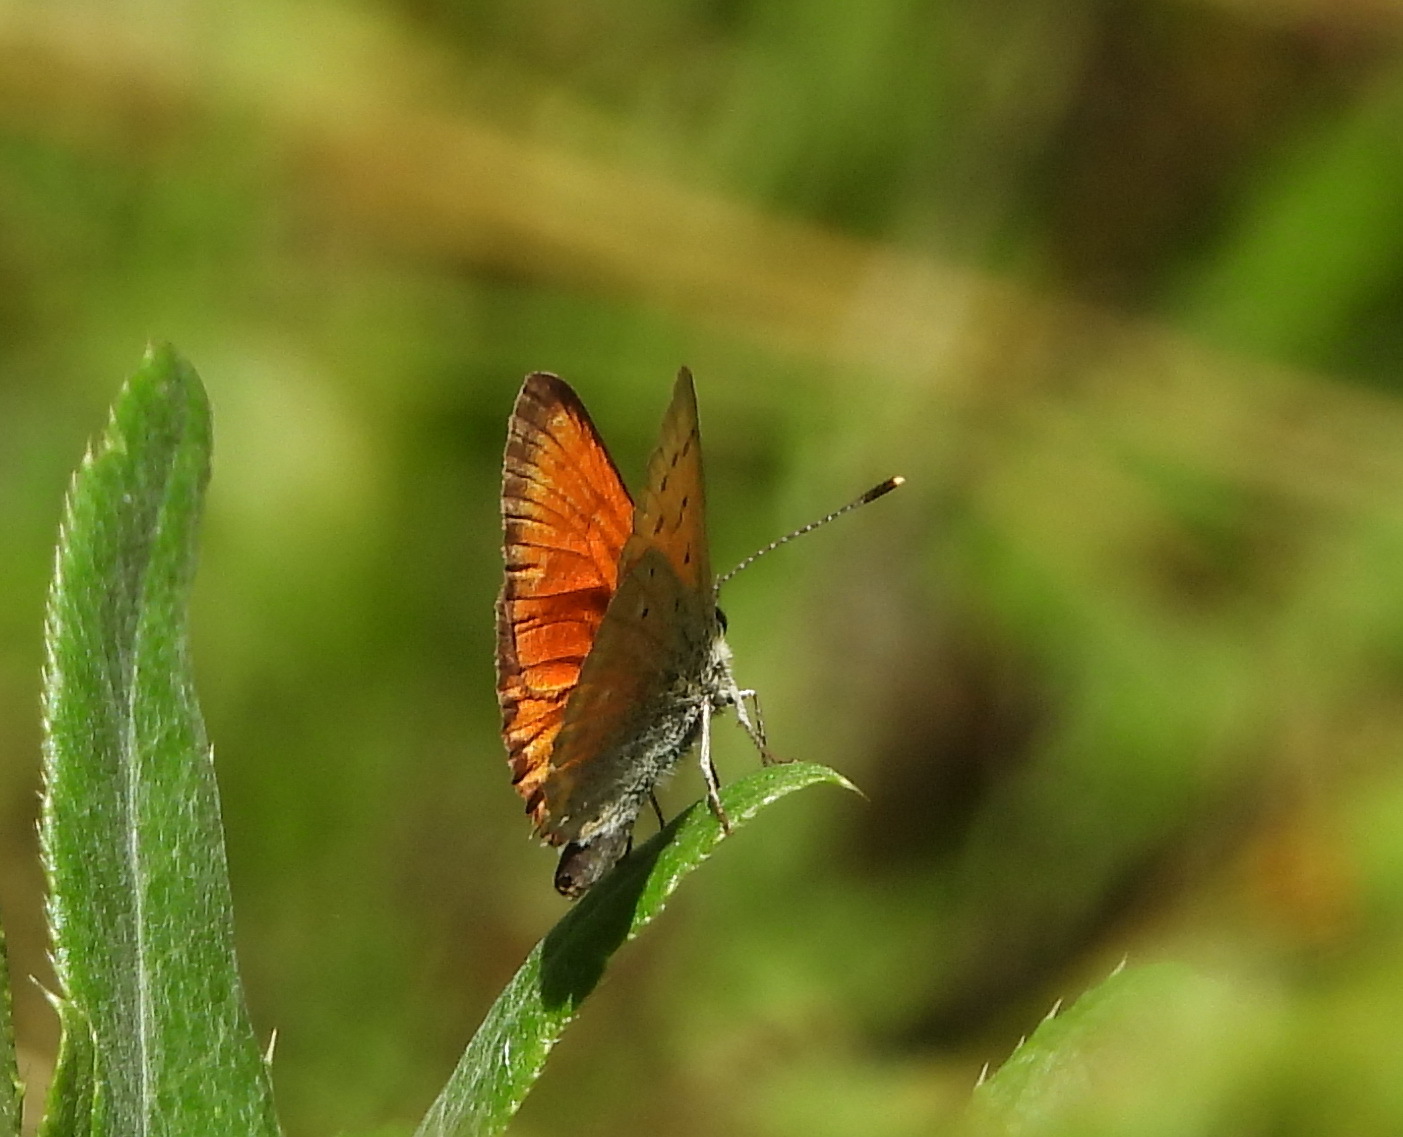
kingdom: Animalia
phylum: Arthropoda
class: Insecta
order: Lepidoptera
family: Lycaenidae
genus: Lycaena
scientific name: Lycaena virgaureae
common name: Scarce copper
